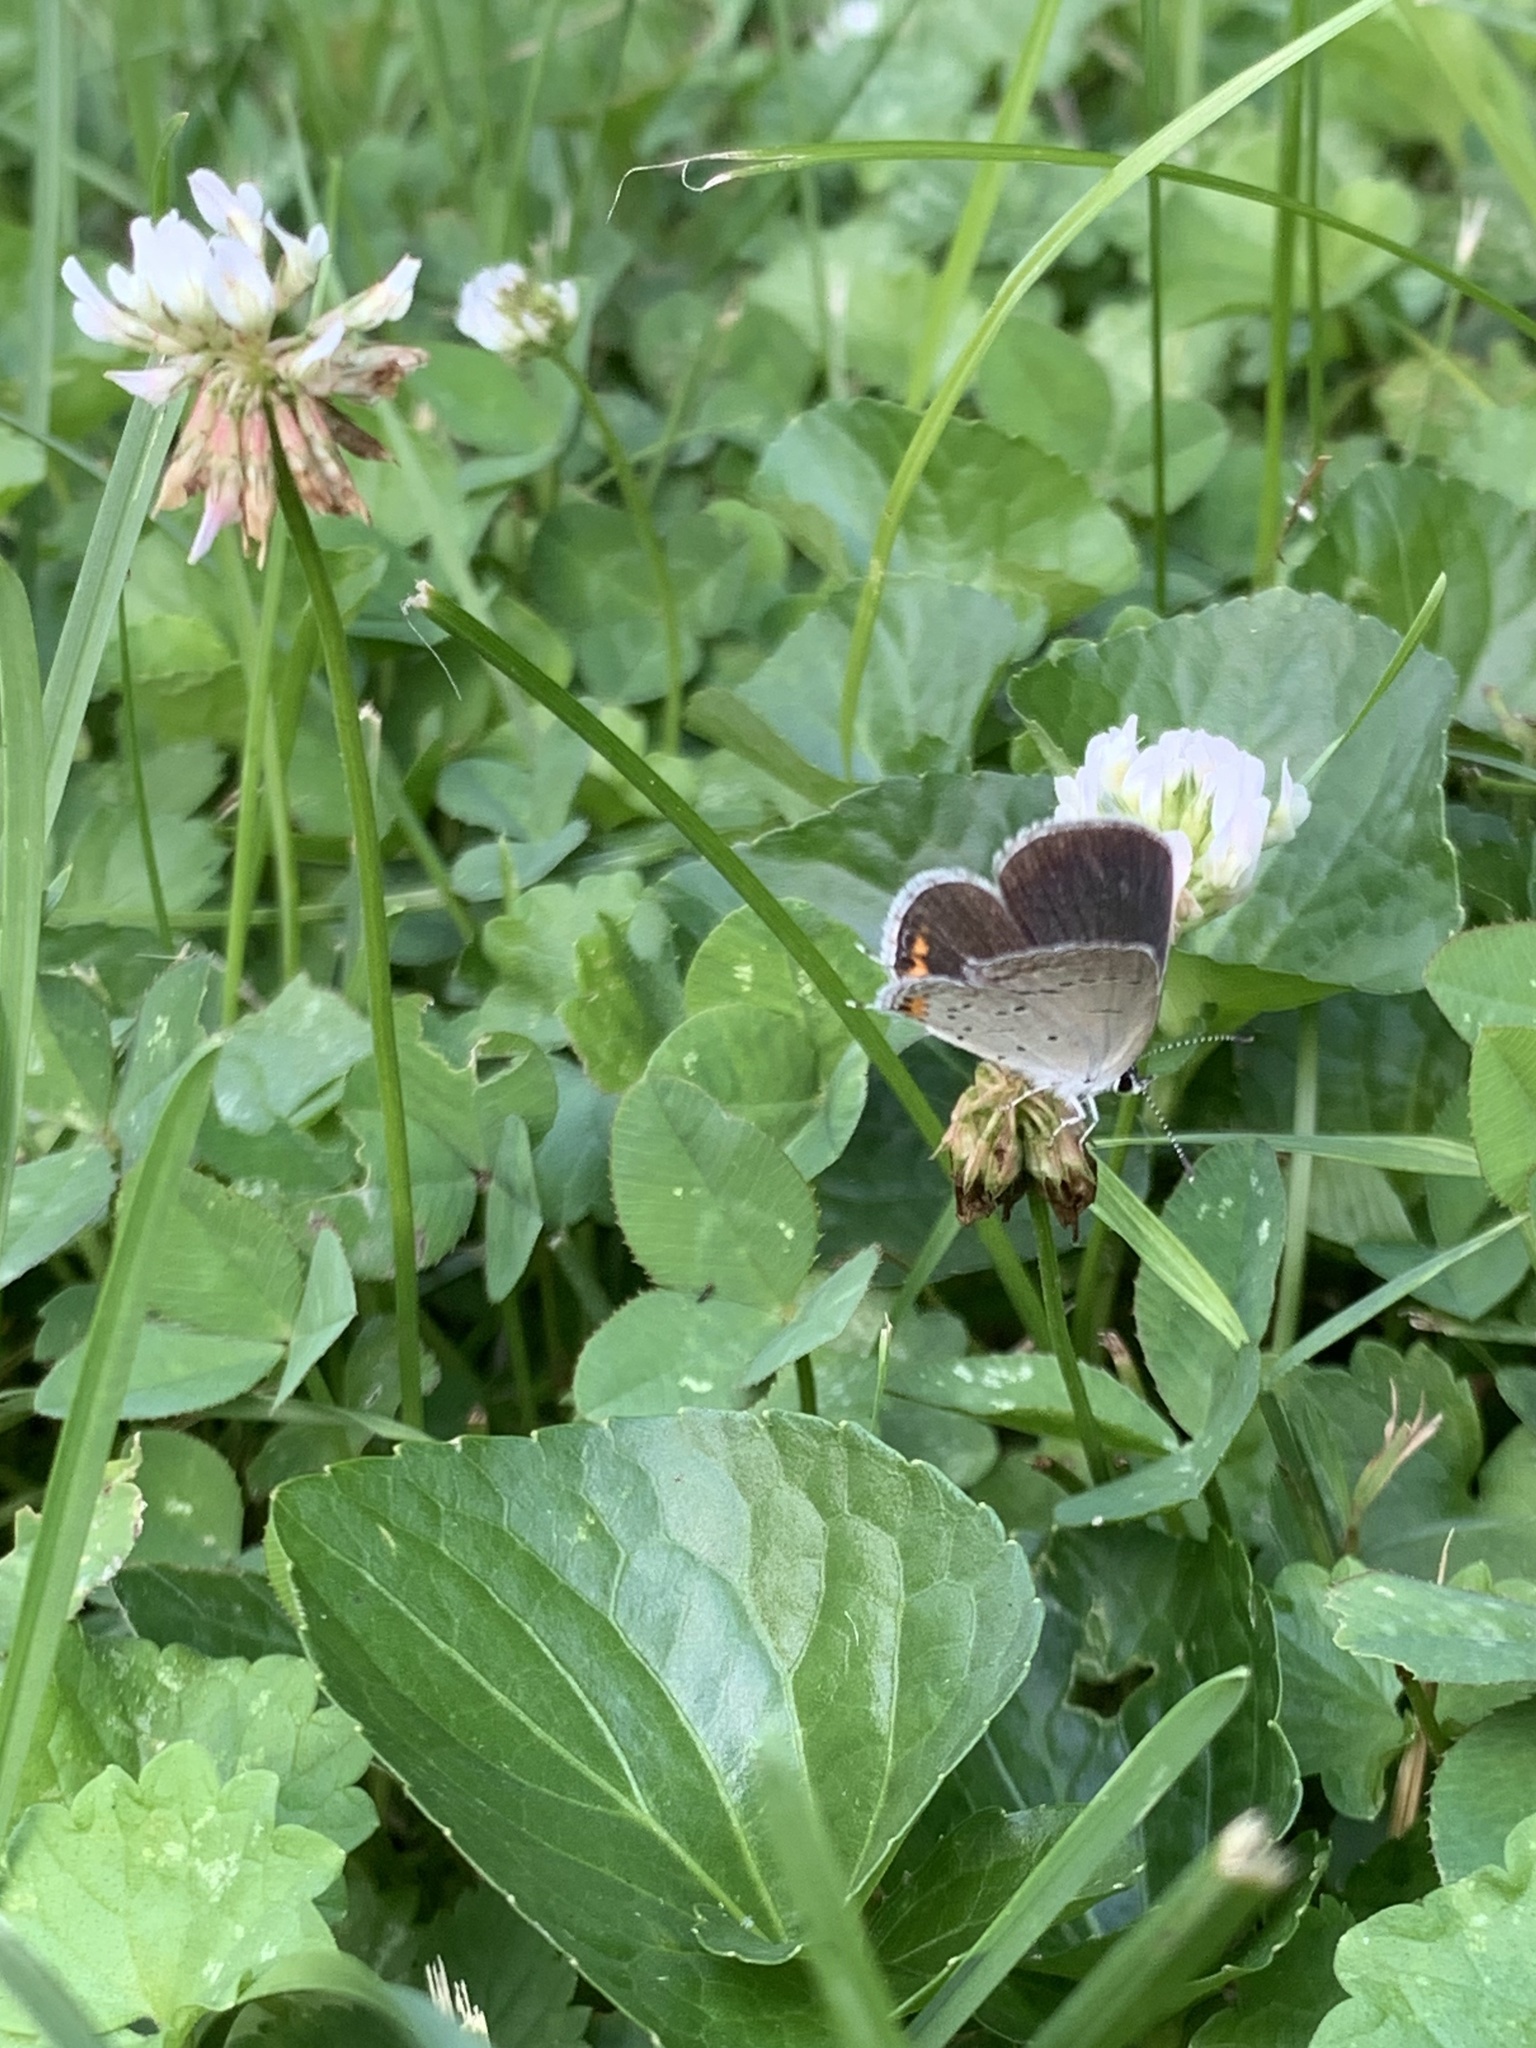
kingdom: Animalia
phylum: Arthropoda
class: Insecta
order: Lepidoptera
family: Lycaenidae
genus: Elkalyce
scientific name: Elkalyce comyntas
